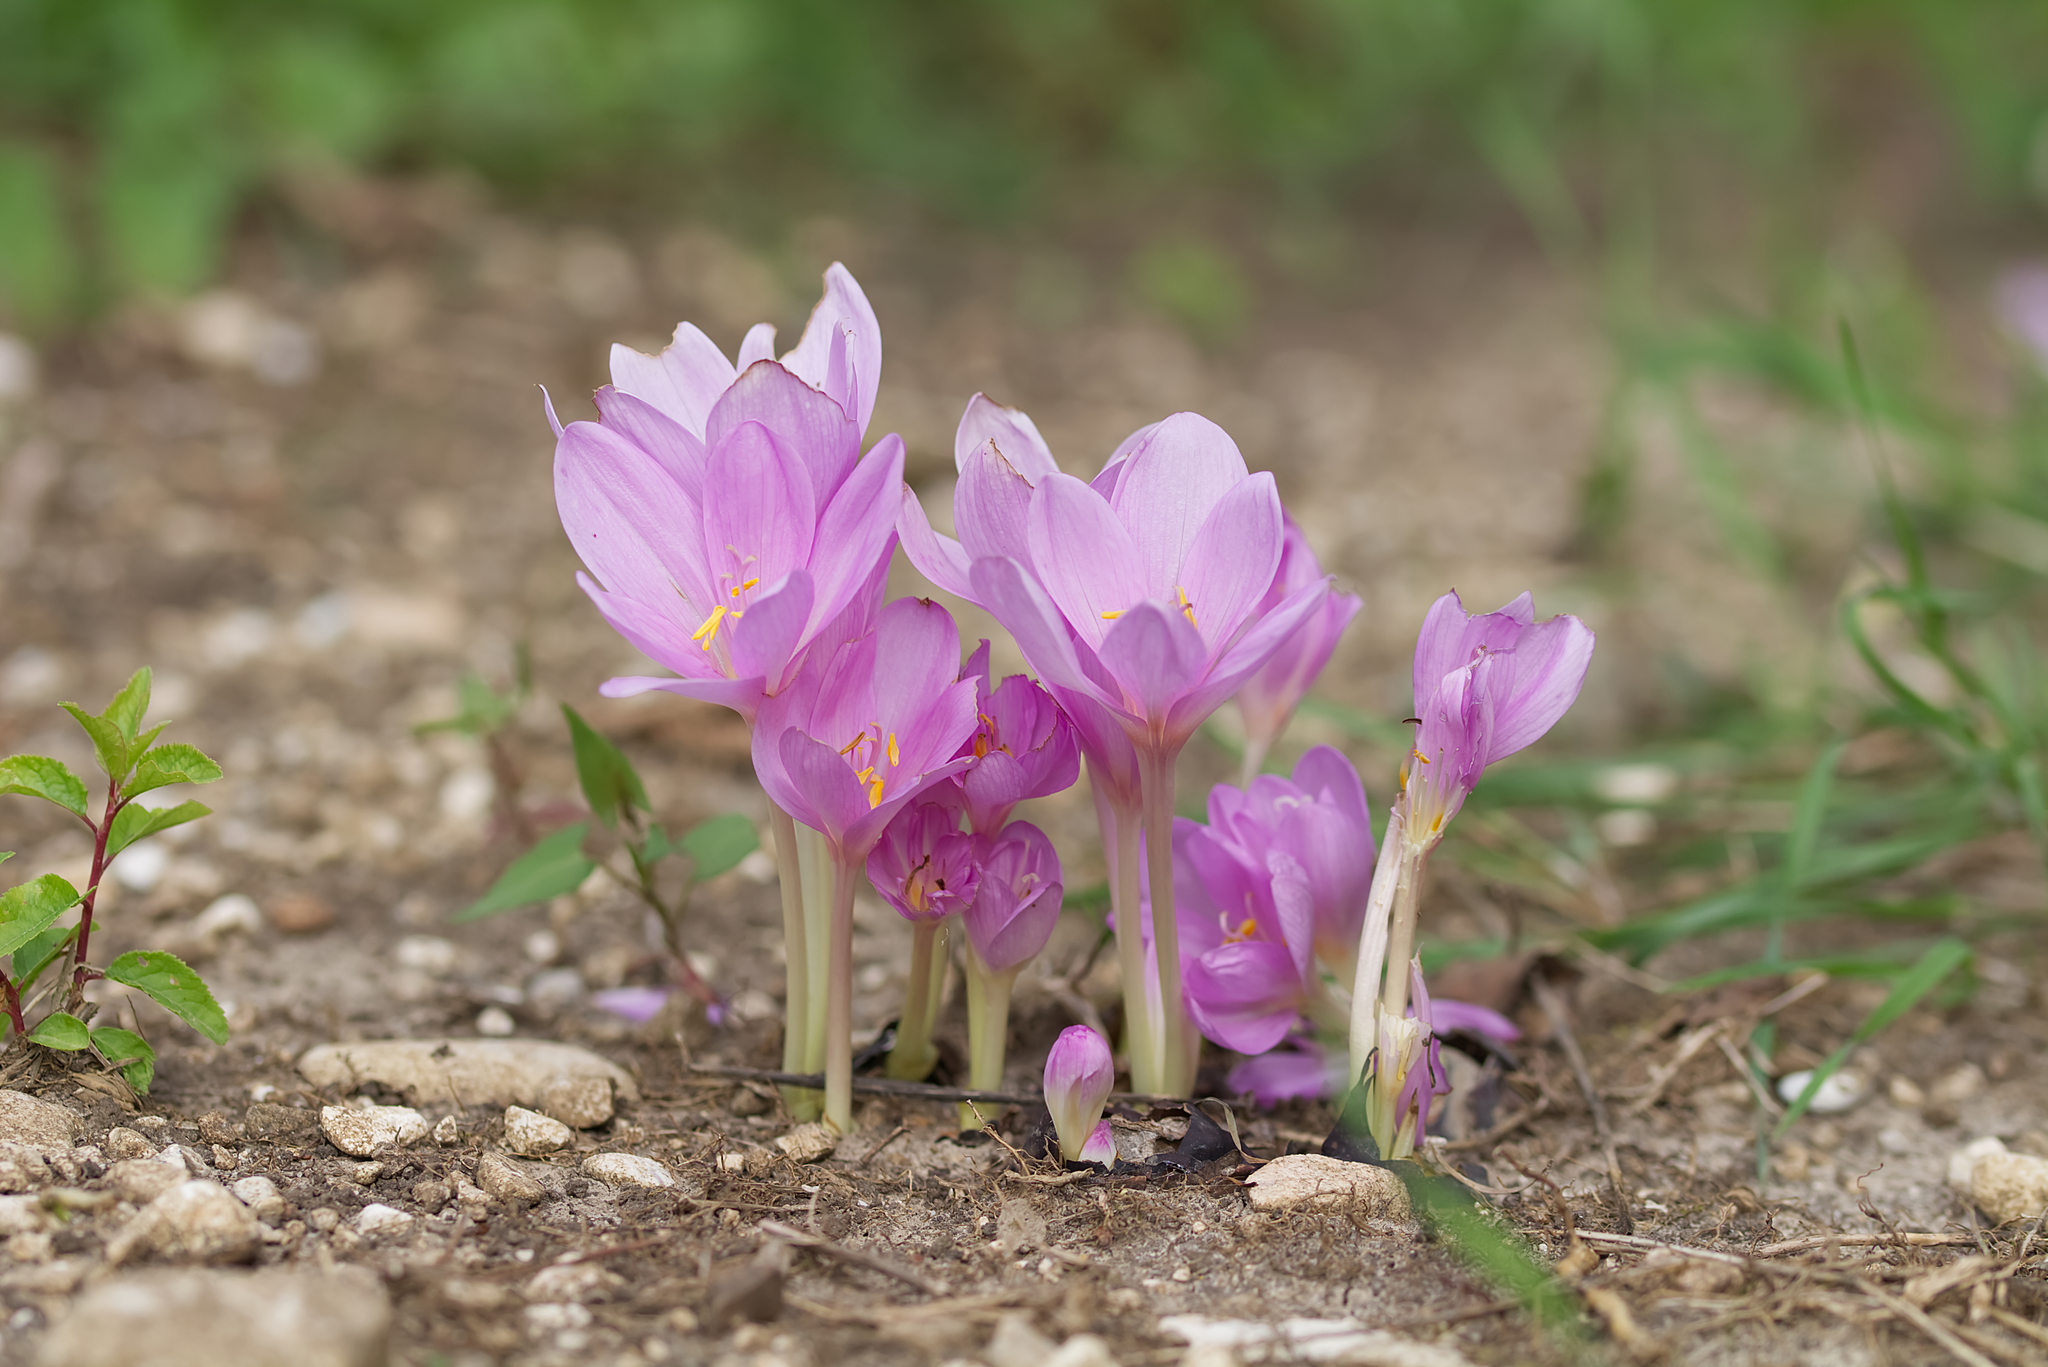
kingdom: Plantae
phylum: Tracheophyta
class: Liliopsida
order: Liliales
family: Colchicaceae
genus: Colchicum
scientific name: Colchicum autumnale
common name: Autumn crocus
